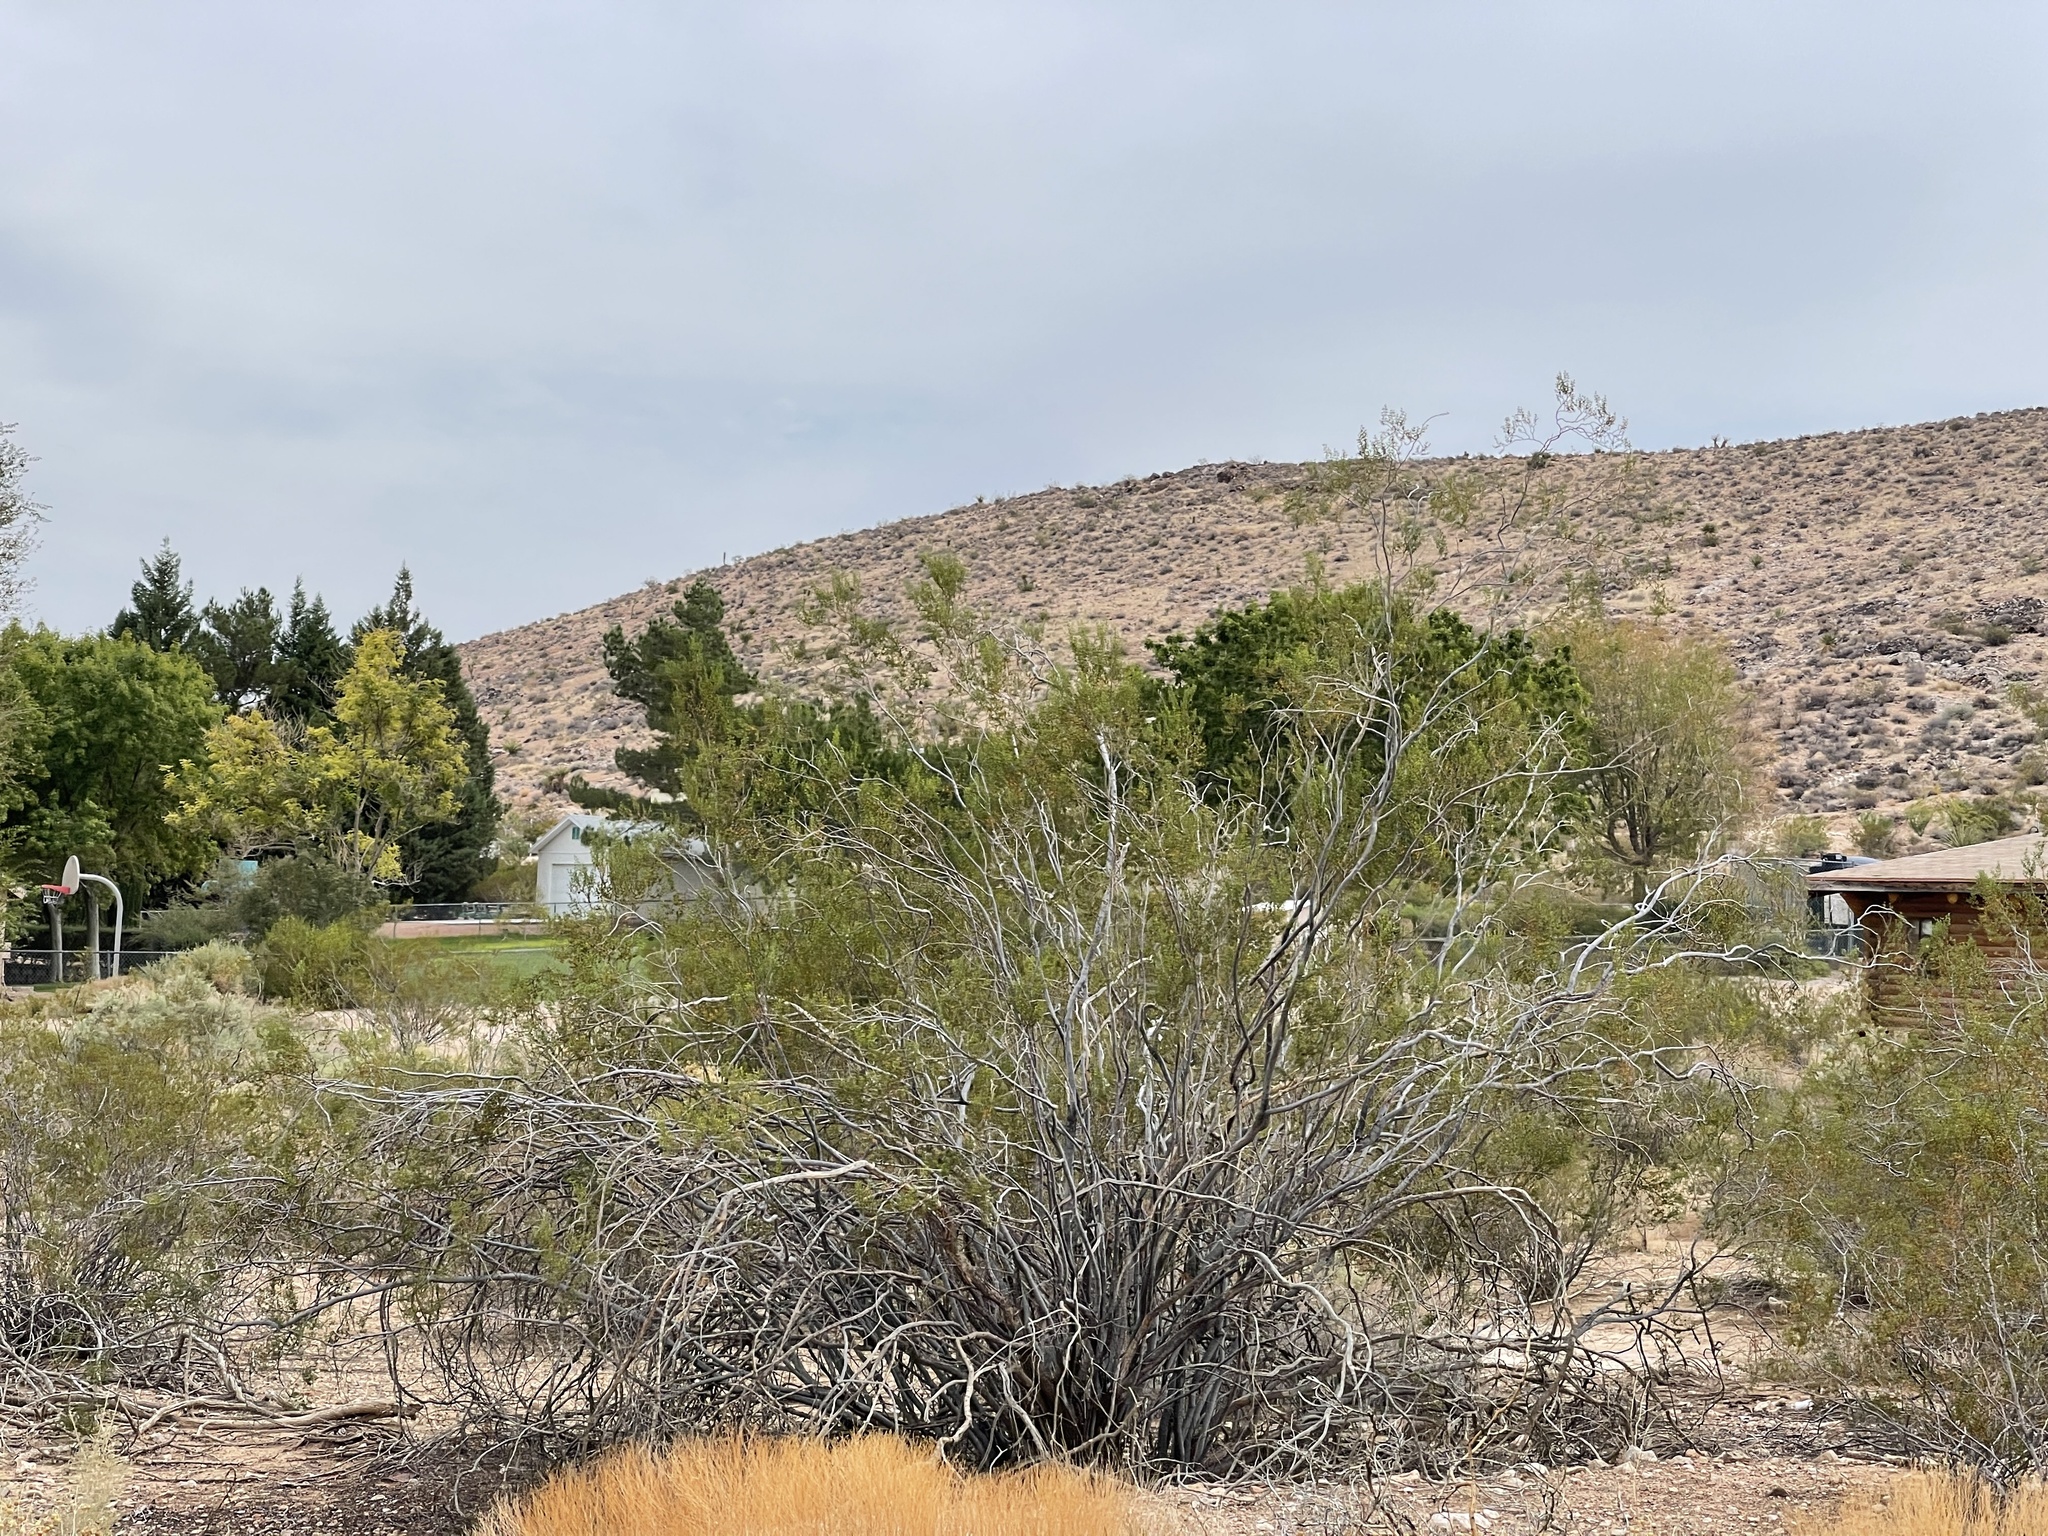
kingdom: Plantae
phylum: Tracheophyta
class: Magnoliopsida
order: Zygophyllales
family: Zygophyllaceae
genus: Larrea
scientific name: Larrea tridentata
